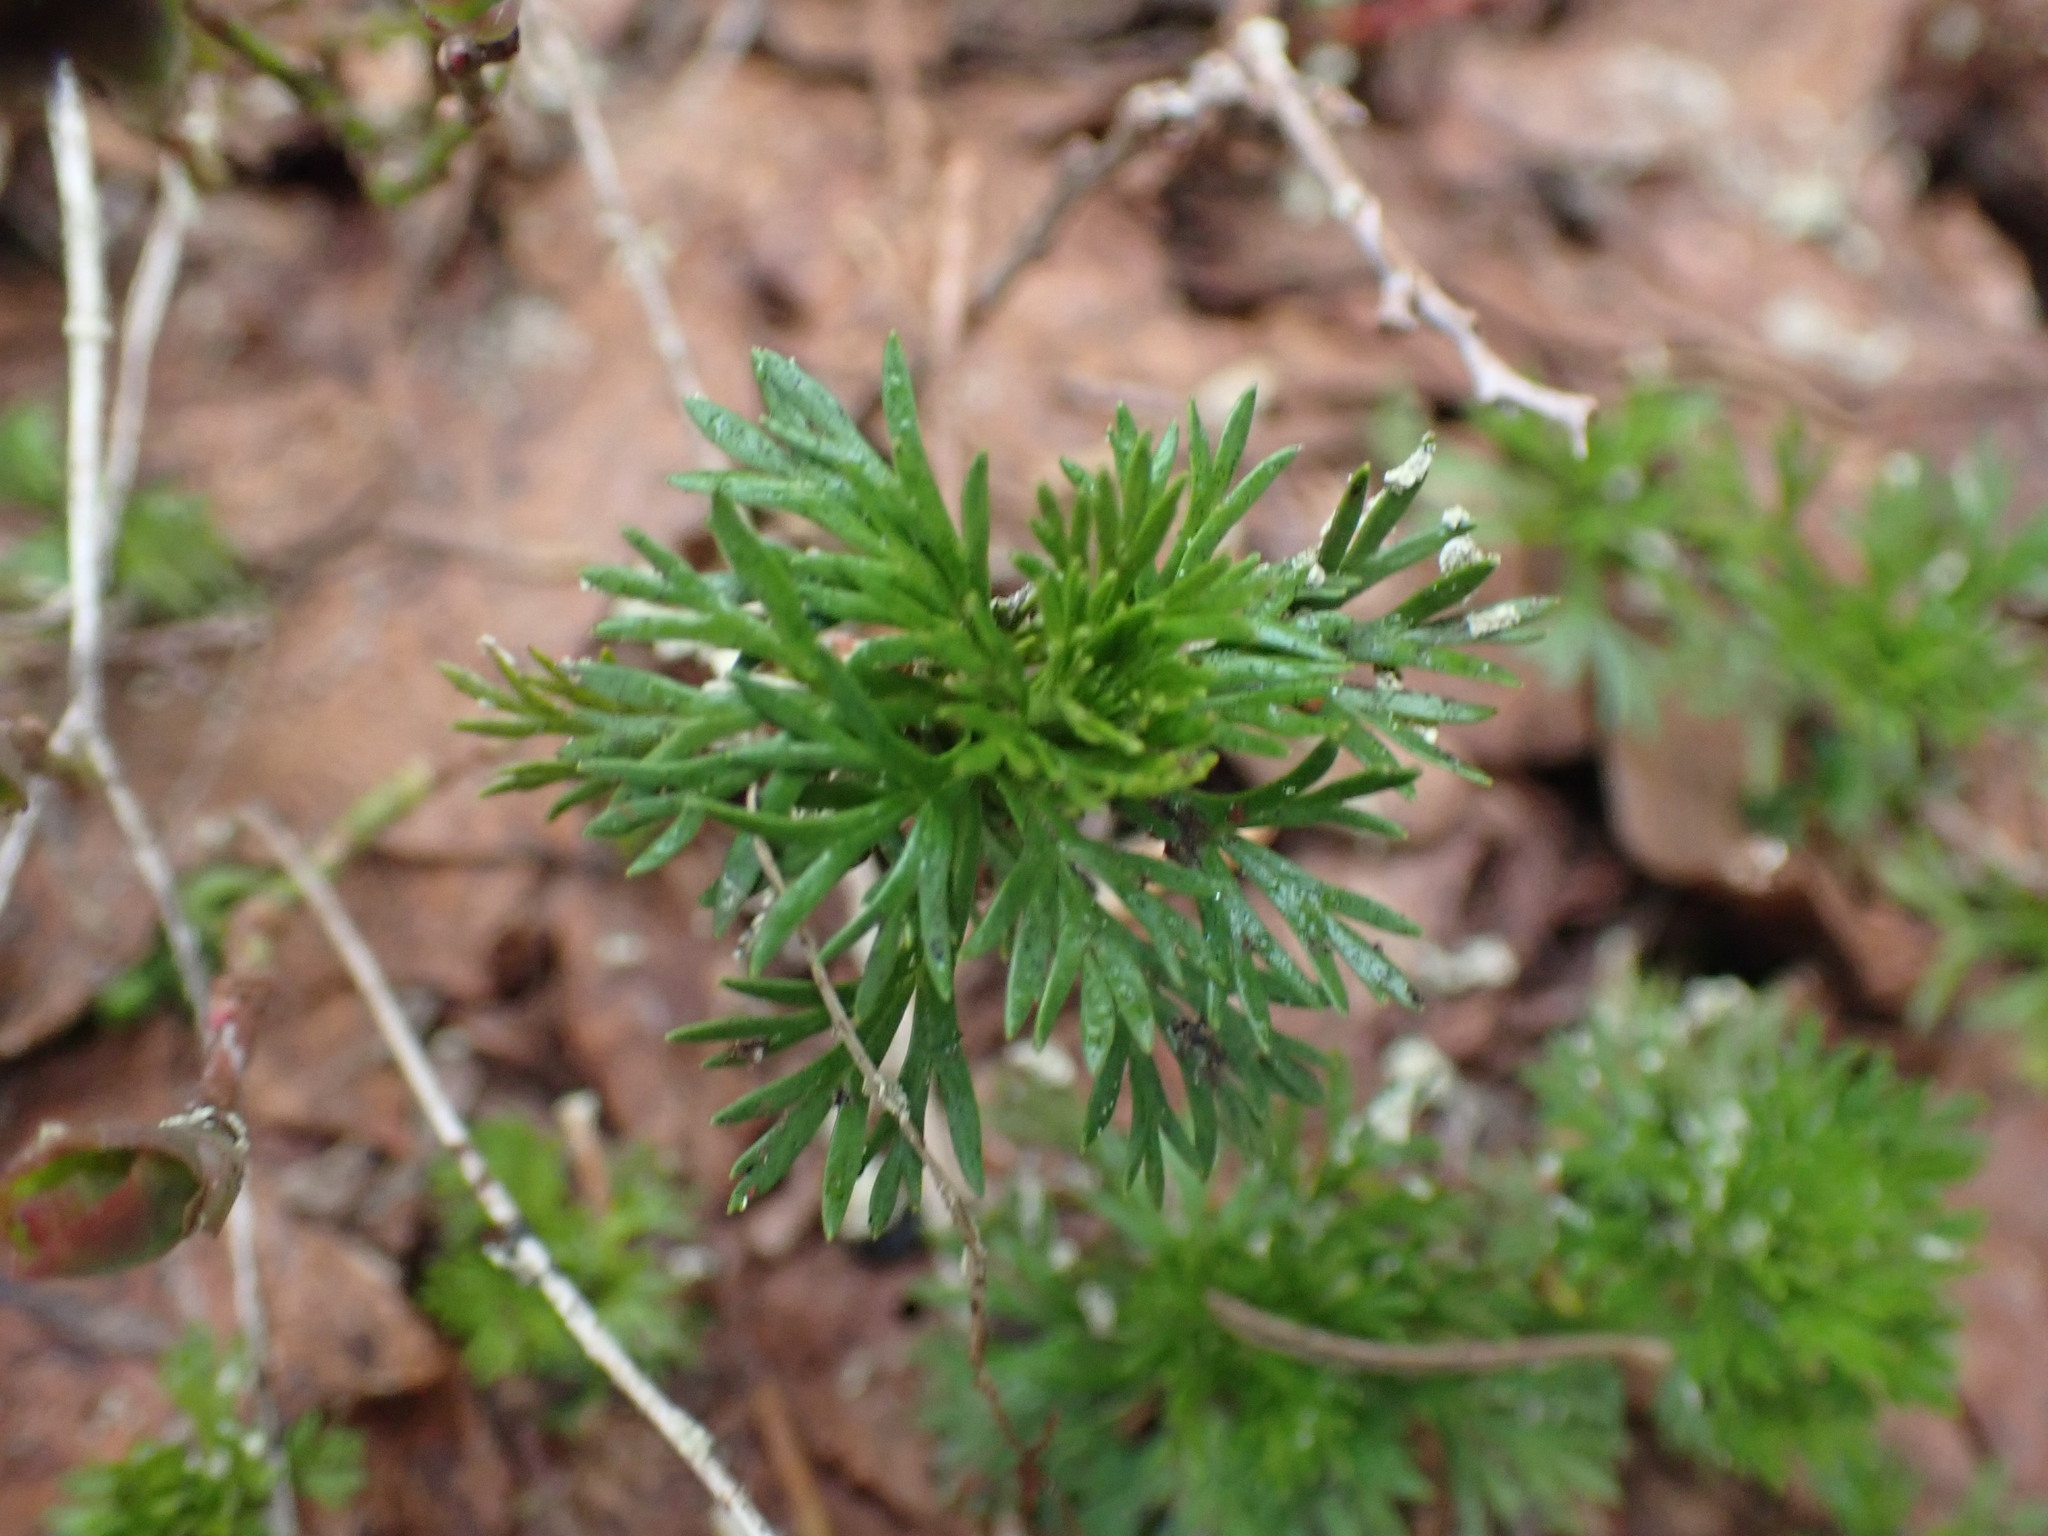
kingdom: Plantae
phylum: Tracheophyta
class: Magnoliopsida
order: Rosales
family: Rosaceae
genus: Luetkea
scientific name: Luetkea pectinata
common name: Partridgefoot
